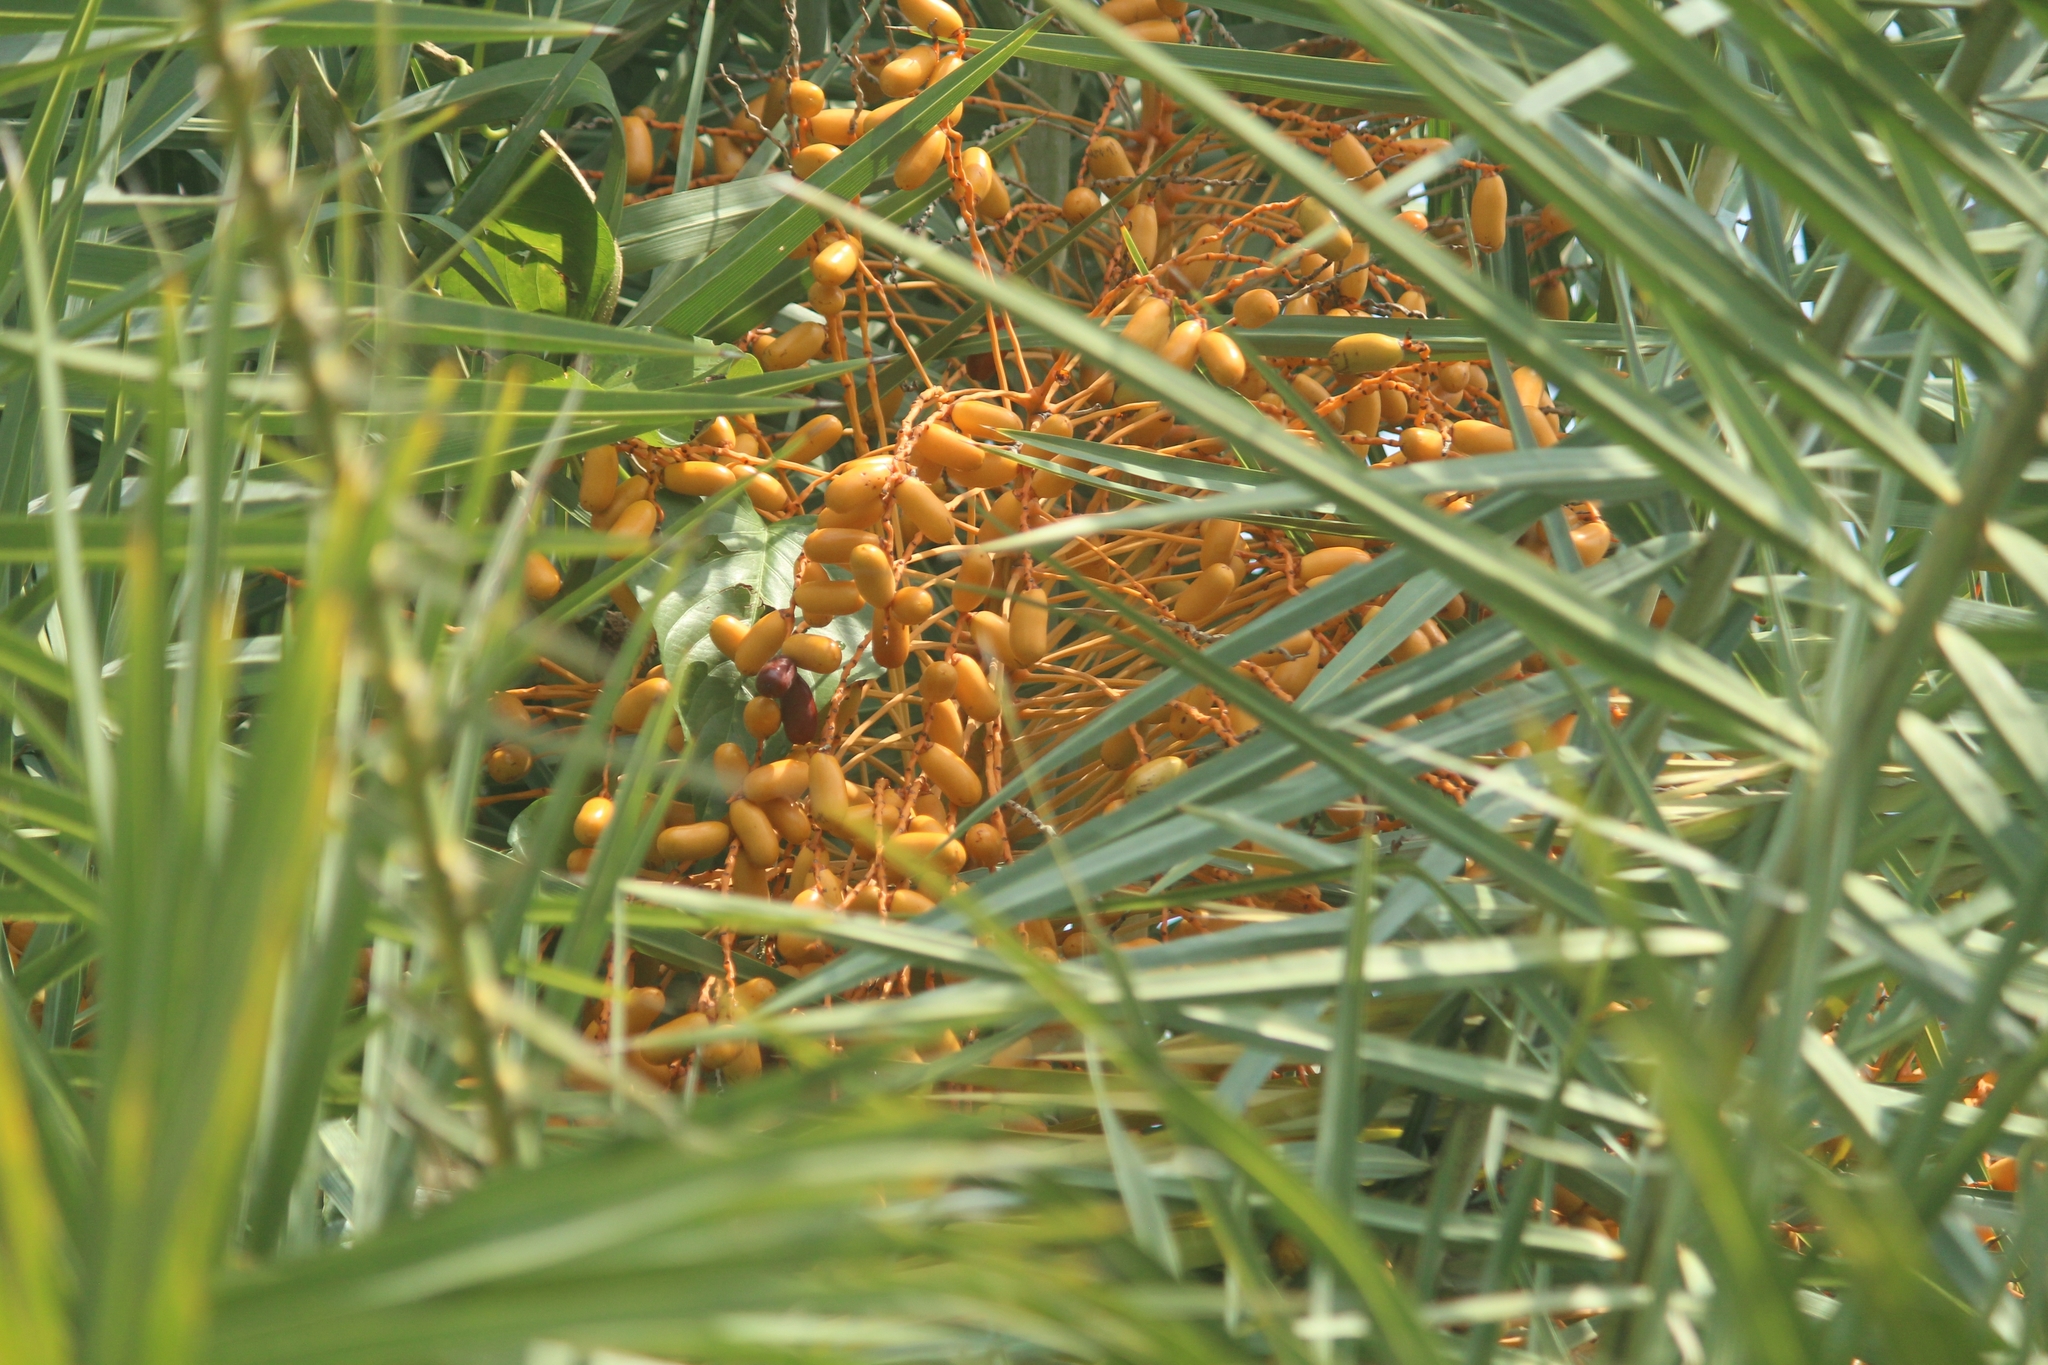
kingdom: Plantae
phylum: Tracheophyta
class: Liliopsida
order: Arecales
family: Arecaceae
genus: Phoenix
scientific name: Phoenix sylvestris
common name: Wild date palm
